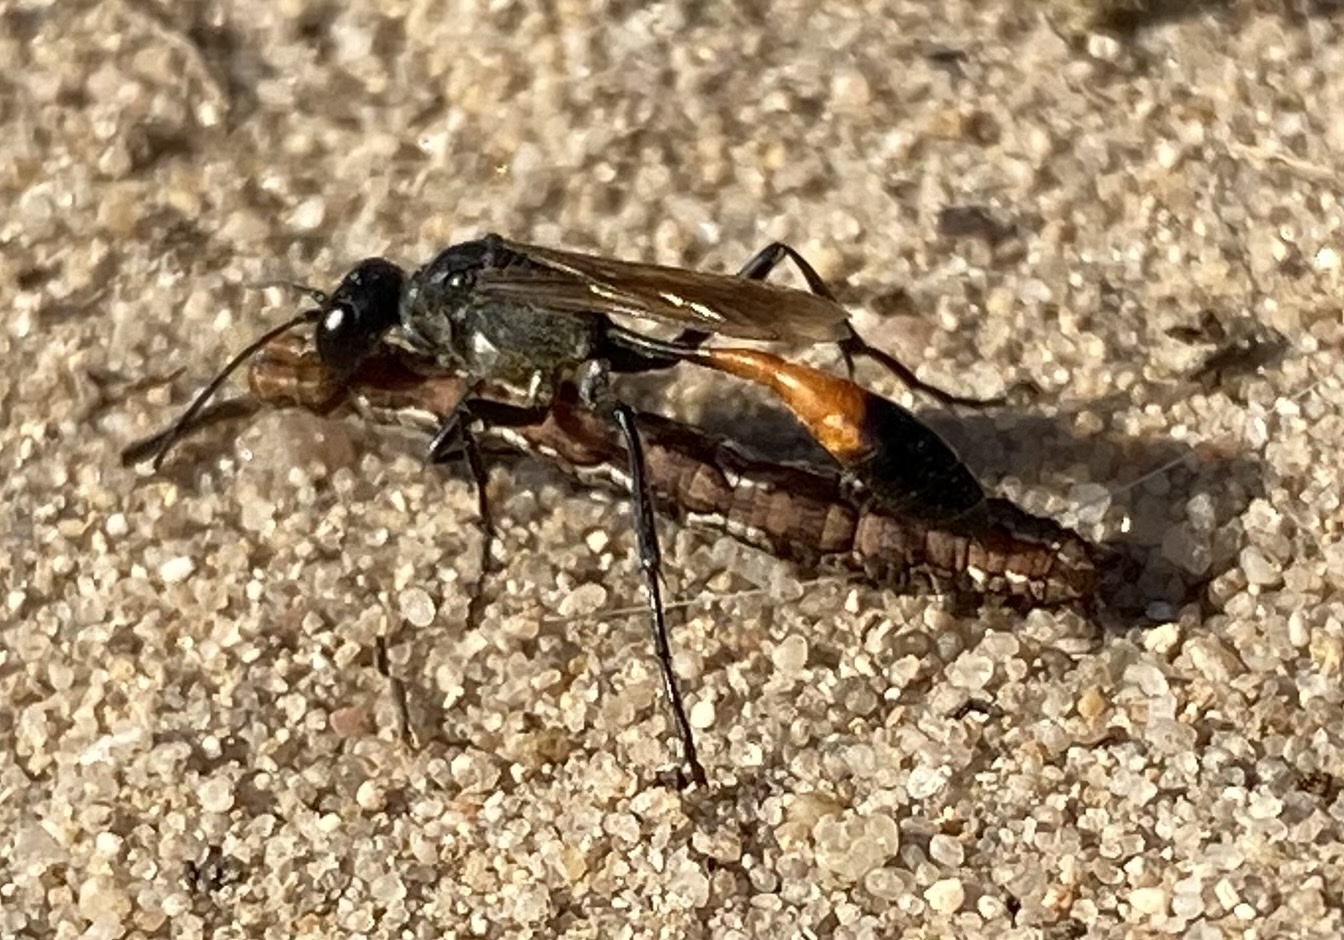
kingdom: Animalia
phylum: Arthropoda
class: Insecta
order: Hymenoptera
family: Sphecidae
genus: Ammophila
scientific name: Ammophila pubescens
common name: Heath sand wasp
